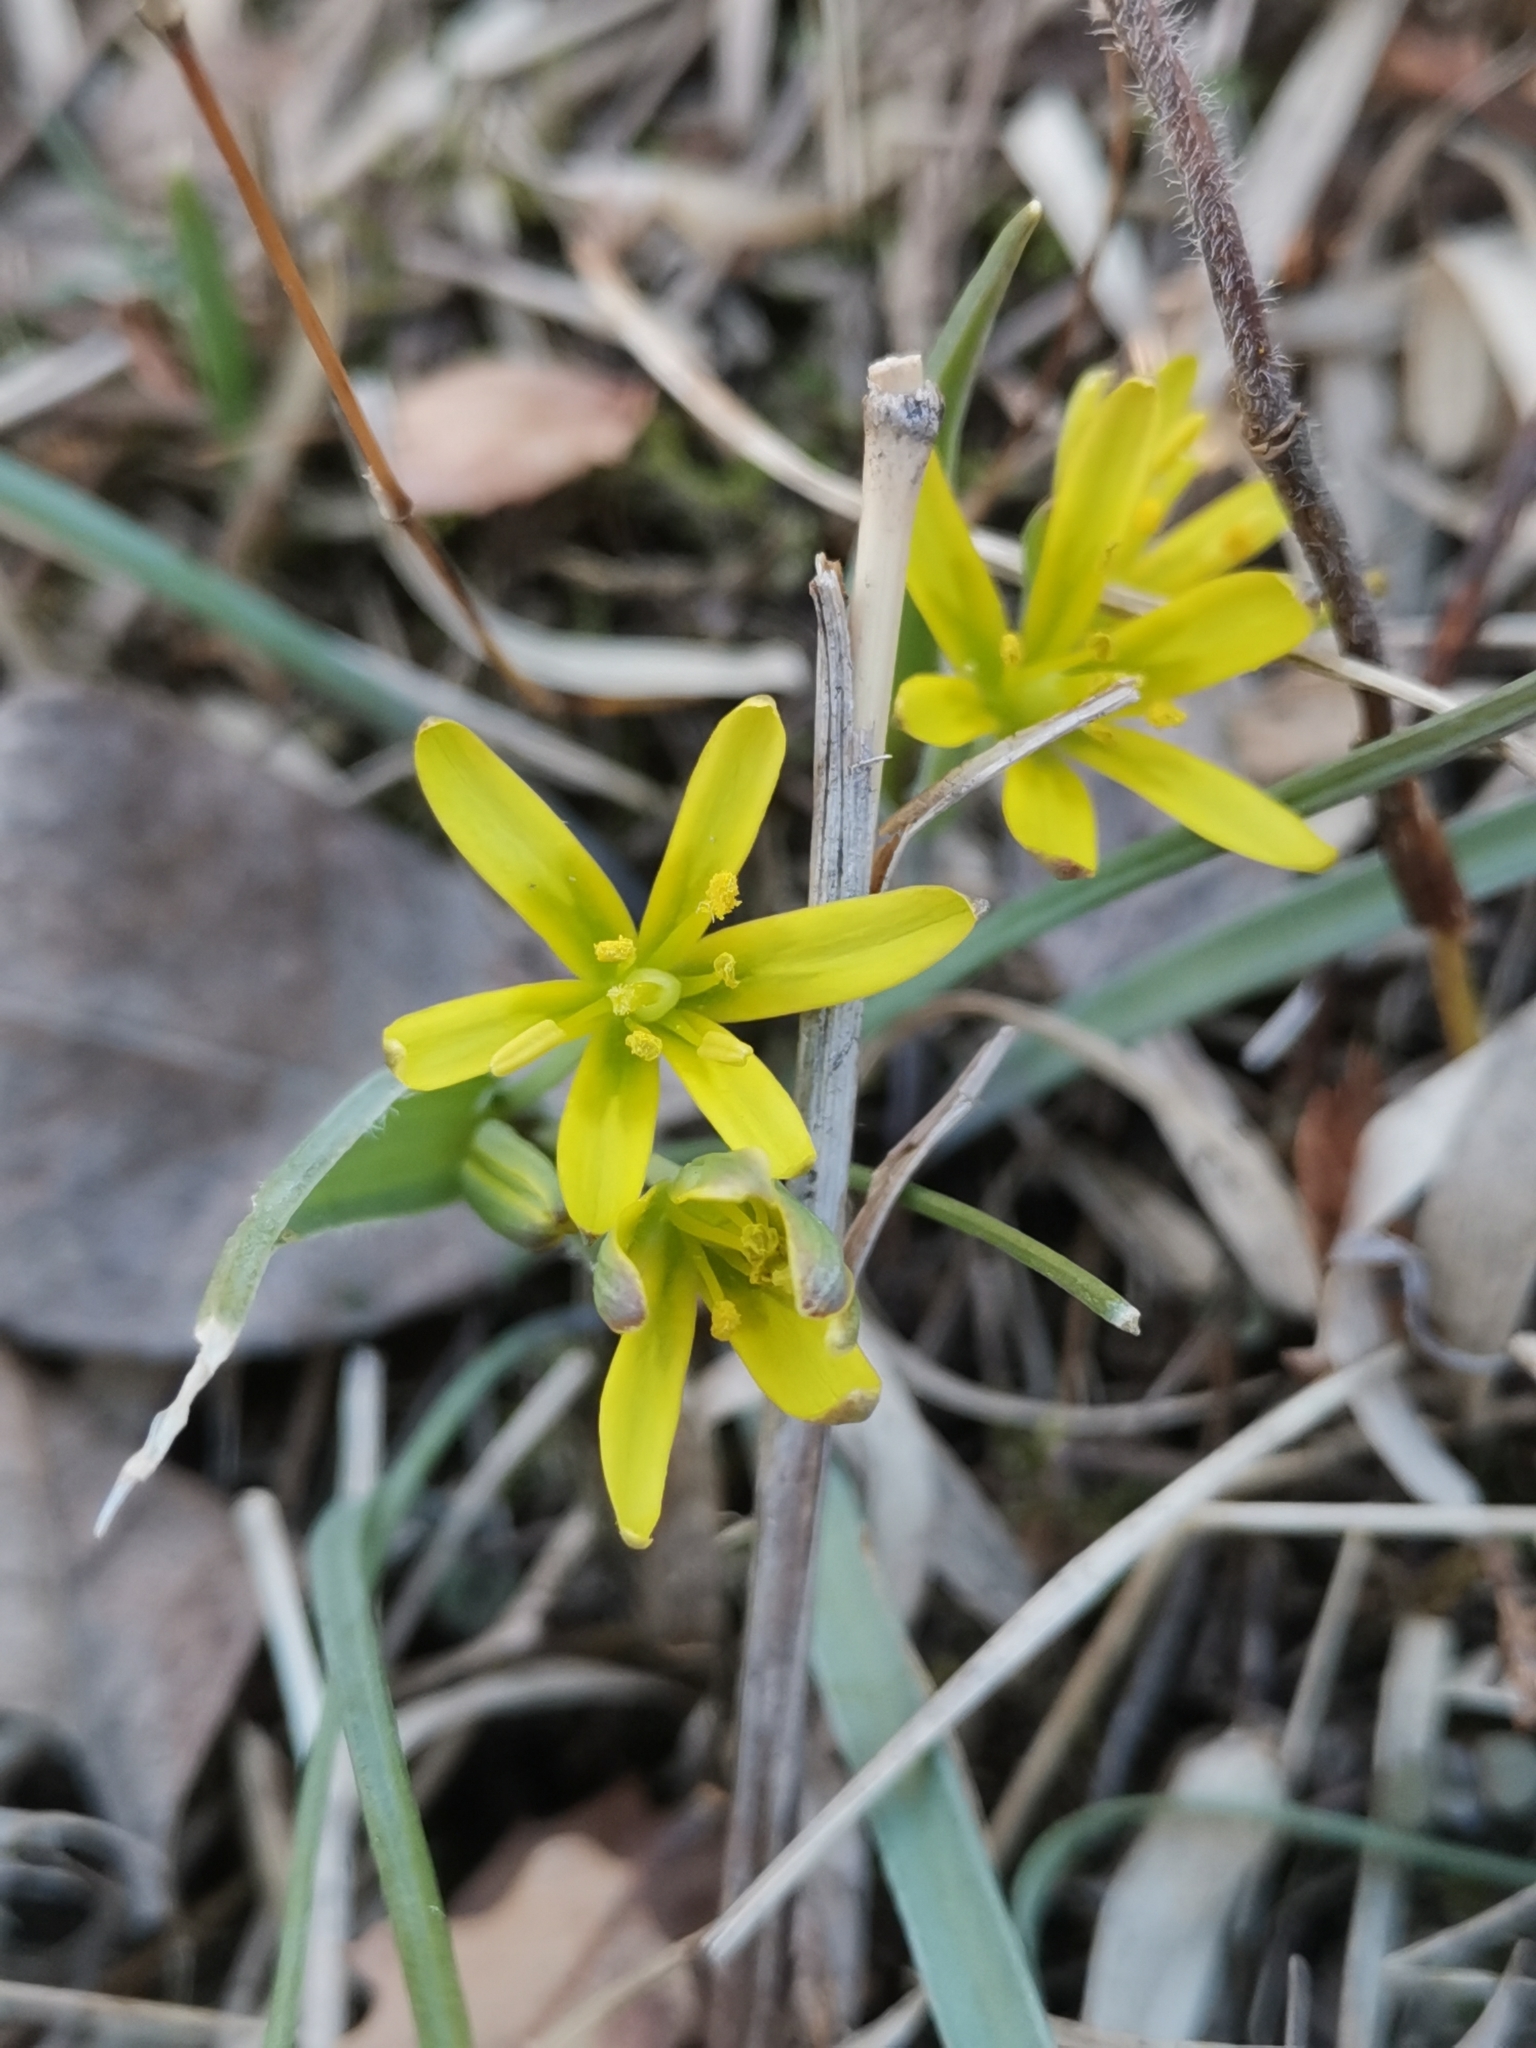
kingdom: Plantae
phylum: Tracheophyta
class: Liliopsida
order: Liliales
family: Liliaceae
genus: Gagea
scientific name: Gagea pusilla
